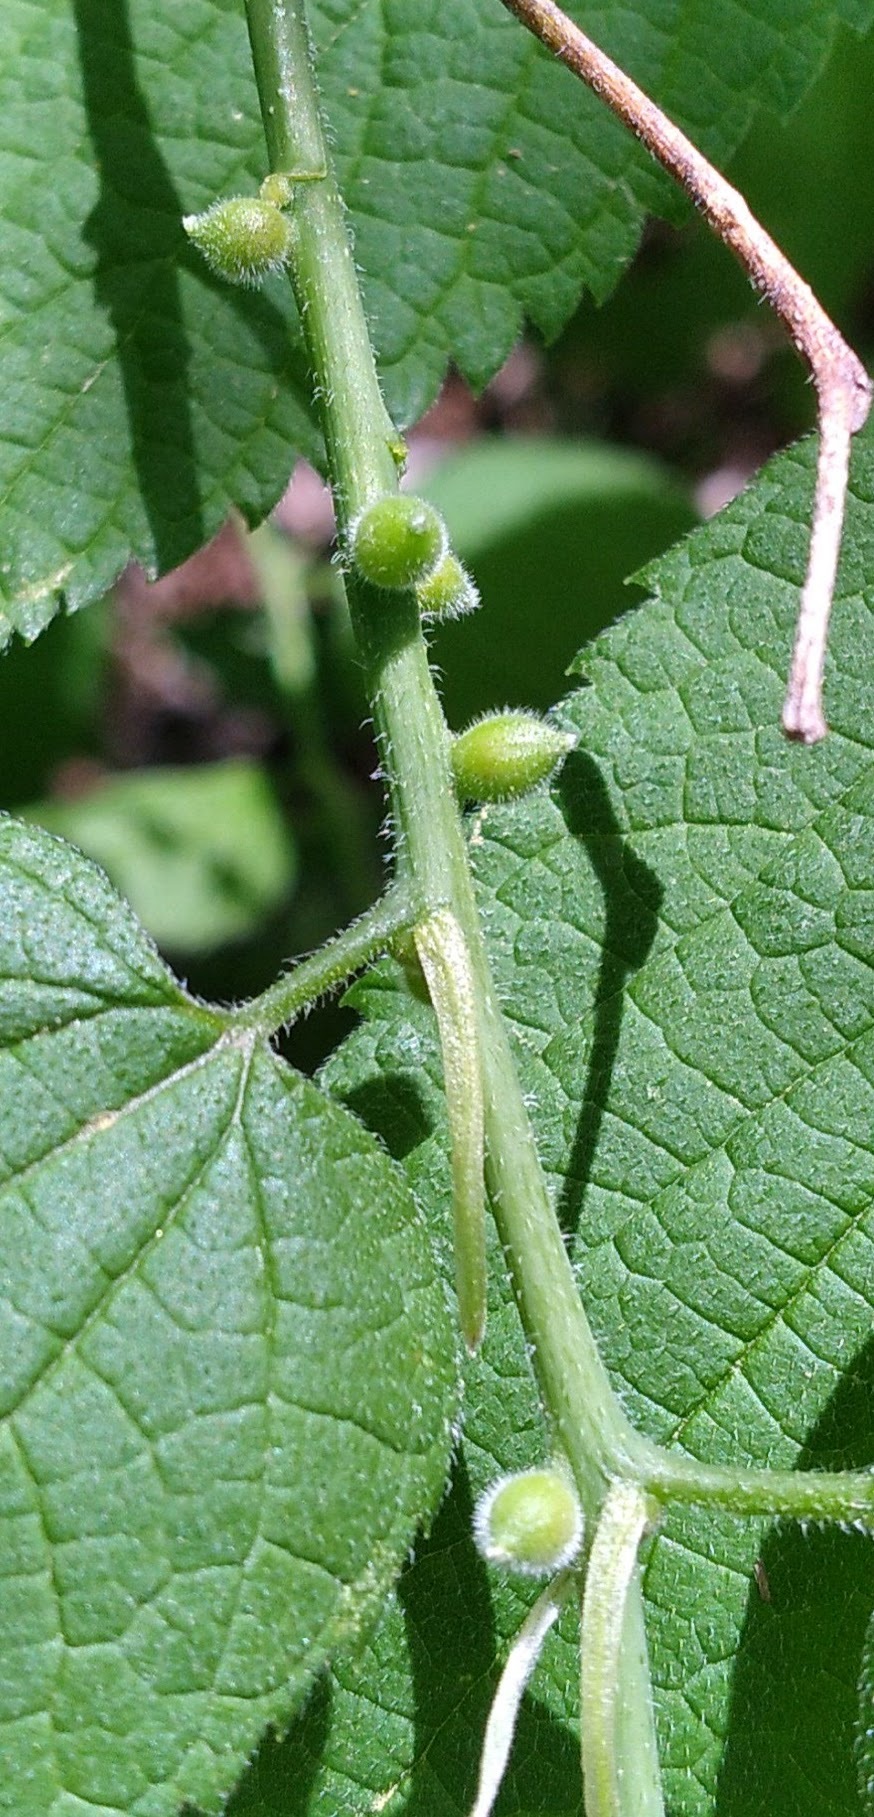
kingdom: Animalia
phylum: Arthropoda
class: Insecta
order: Diptera
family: Cecidomyiidae
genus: Celticecis
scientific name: Celticecis oviformis
